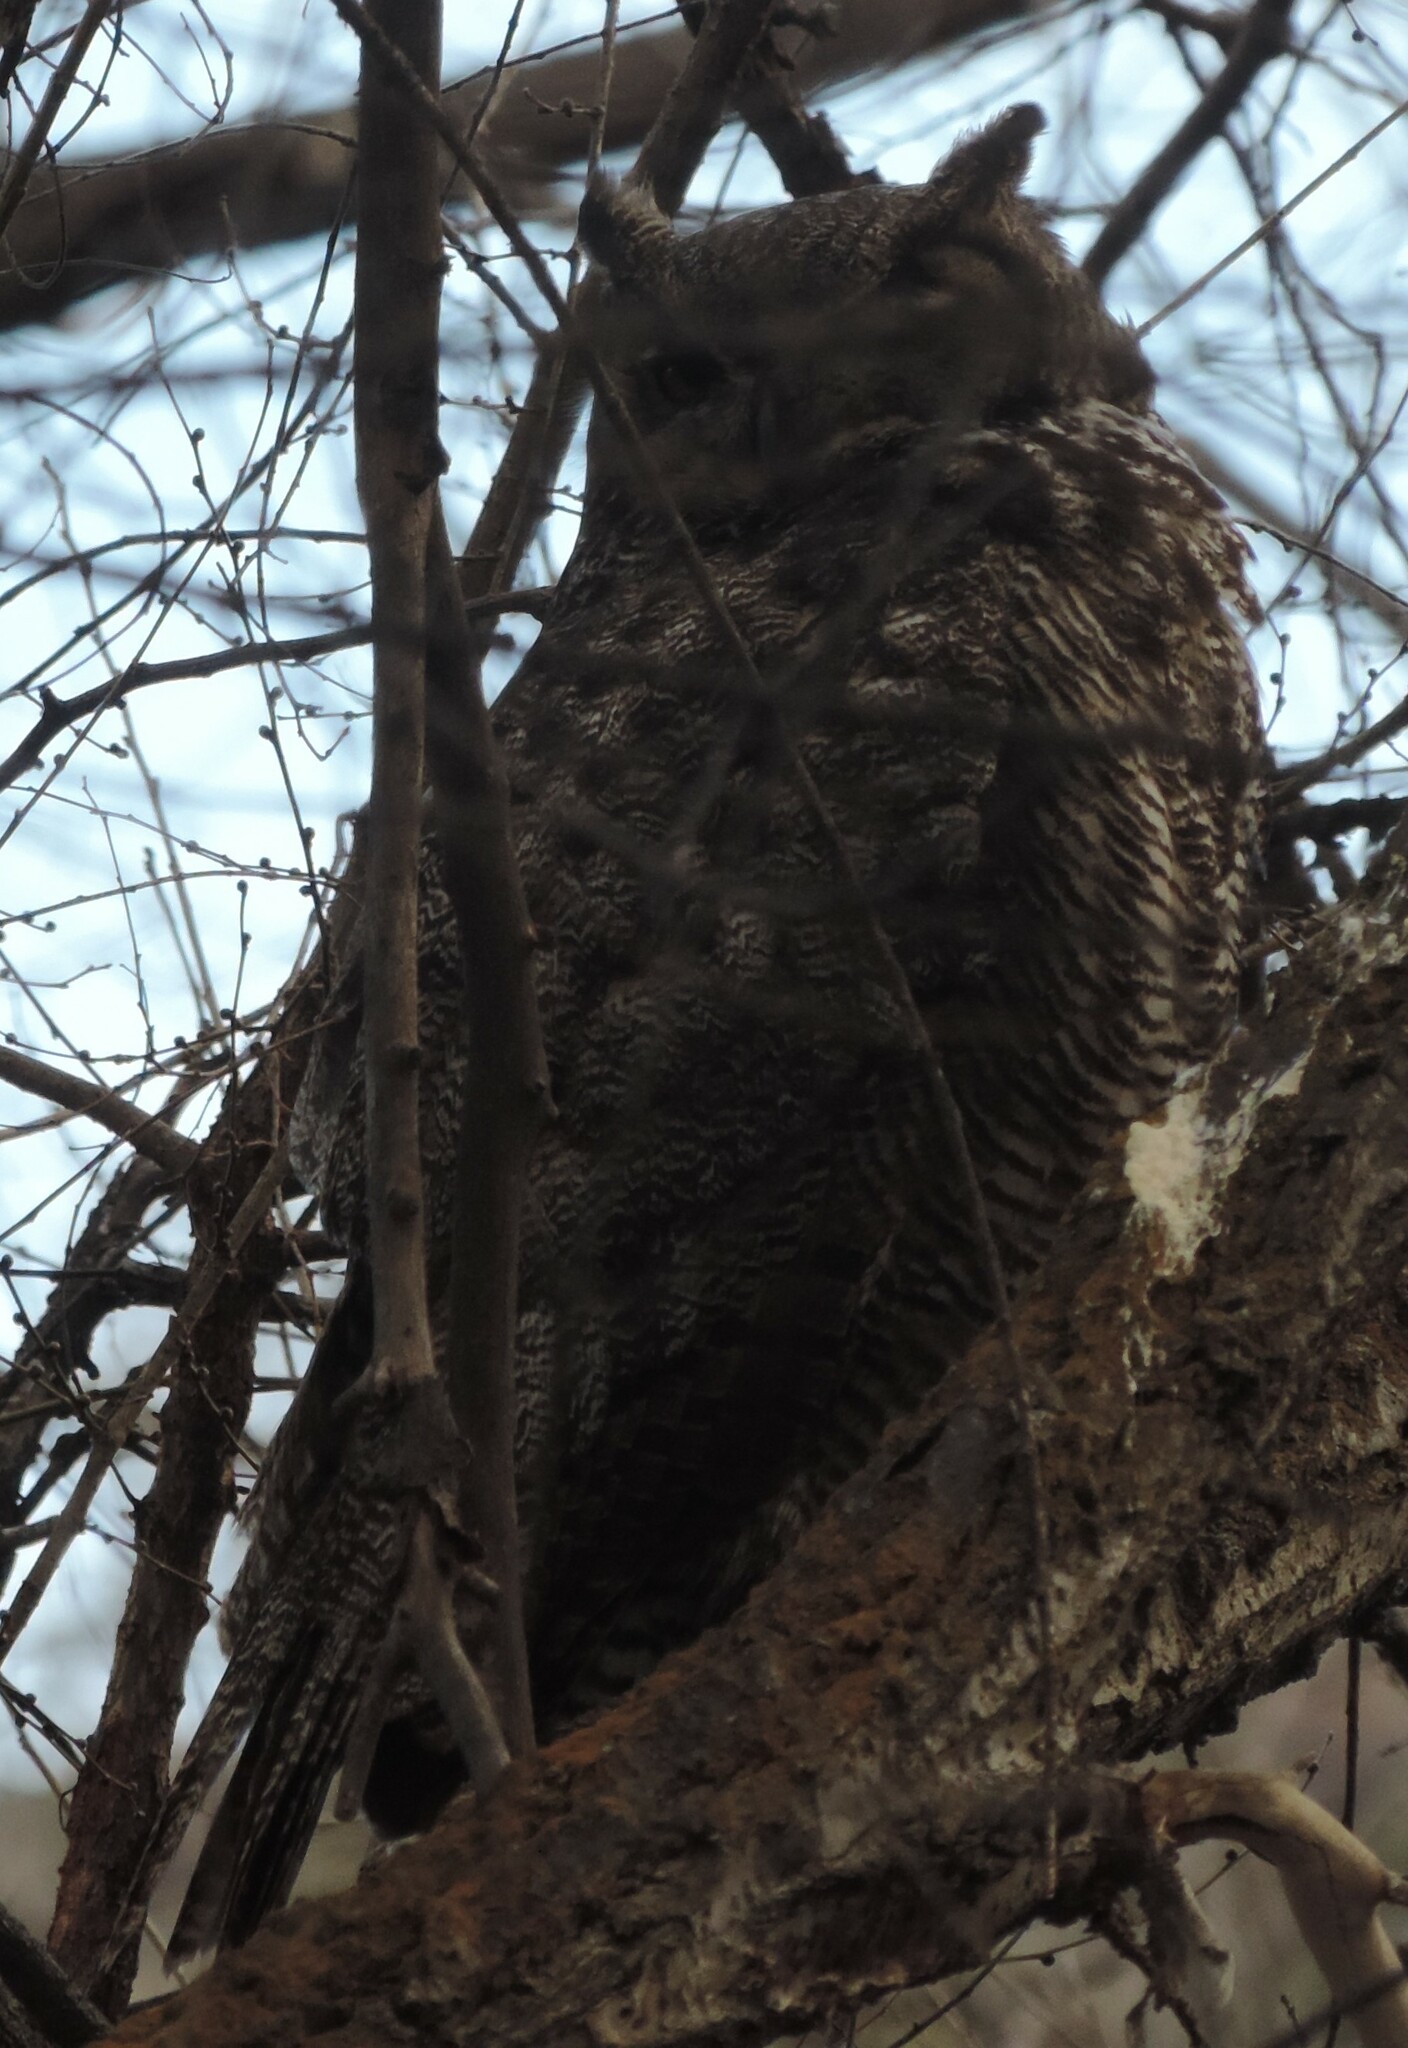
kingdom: Animalia
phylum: Chordata
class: Aves
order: Strigiformes
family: Strigidae
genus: Bubo
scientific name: Bubo virginianus
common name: Great horned owl
